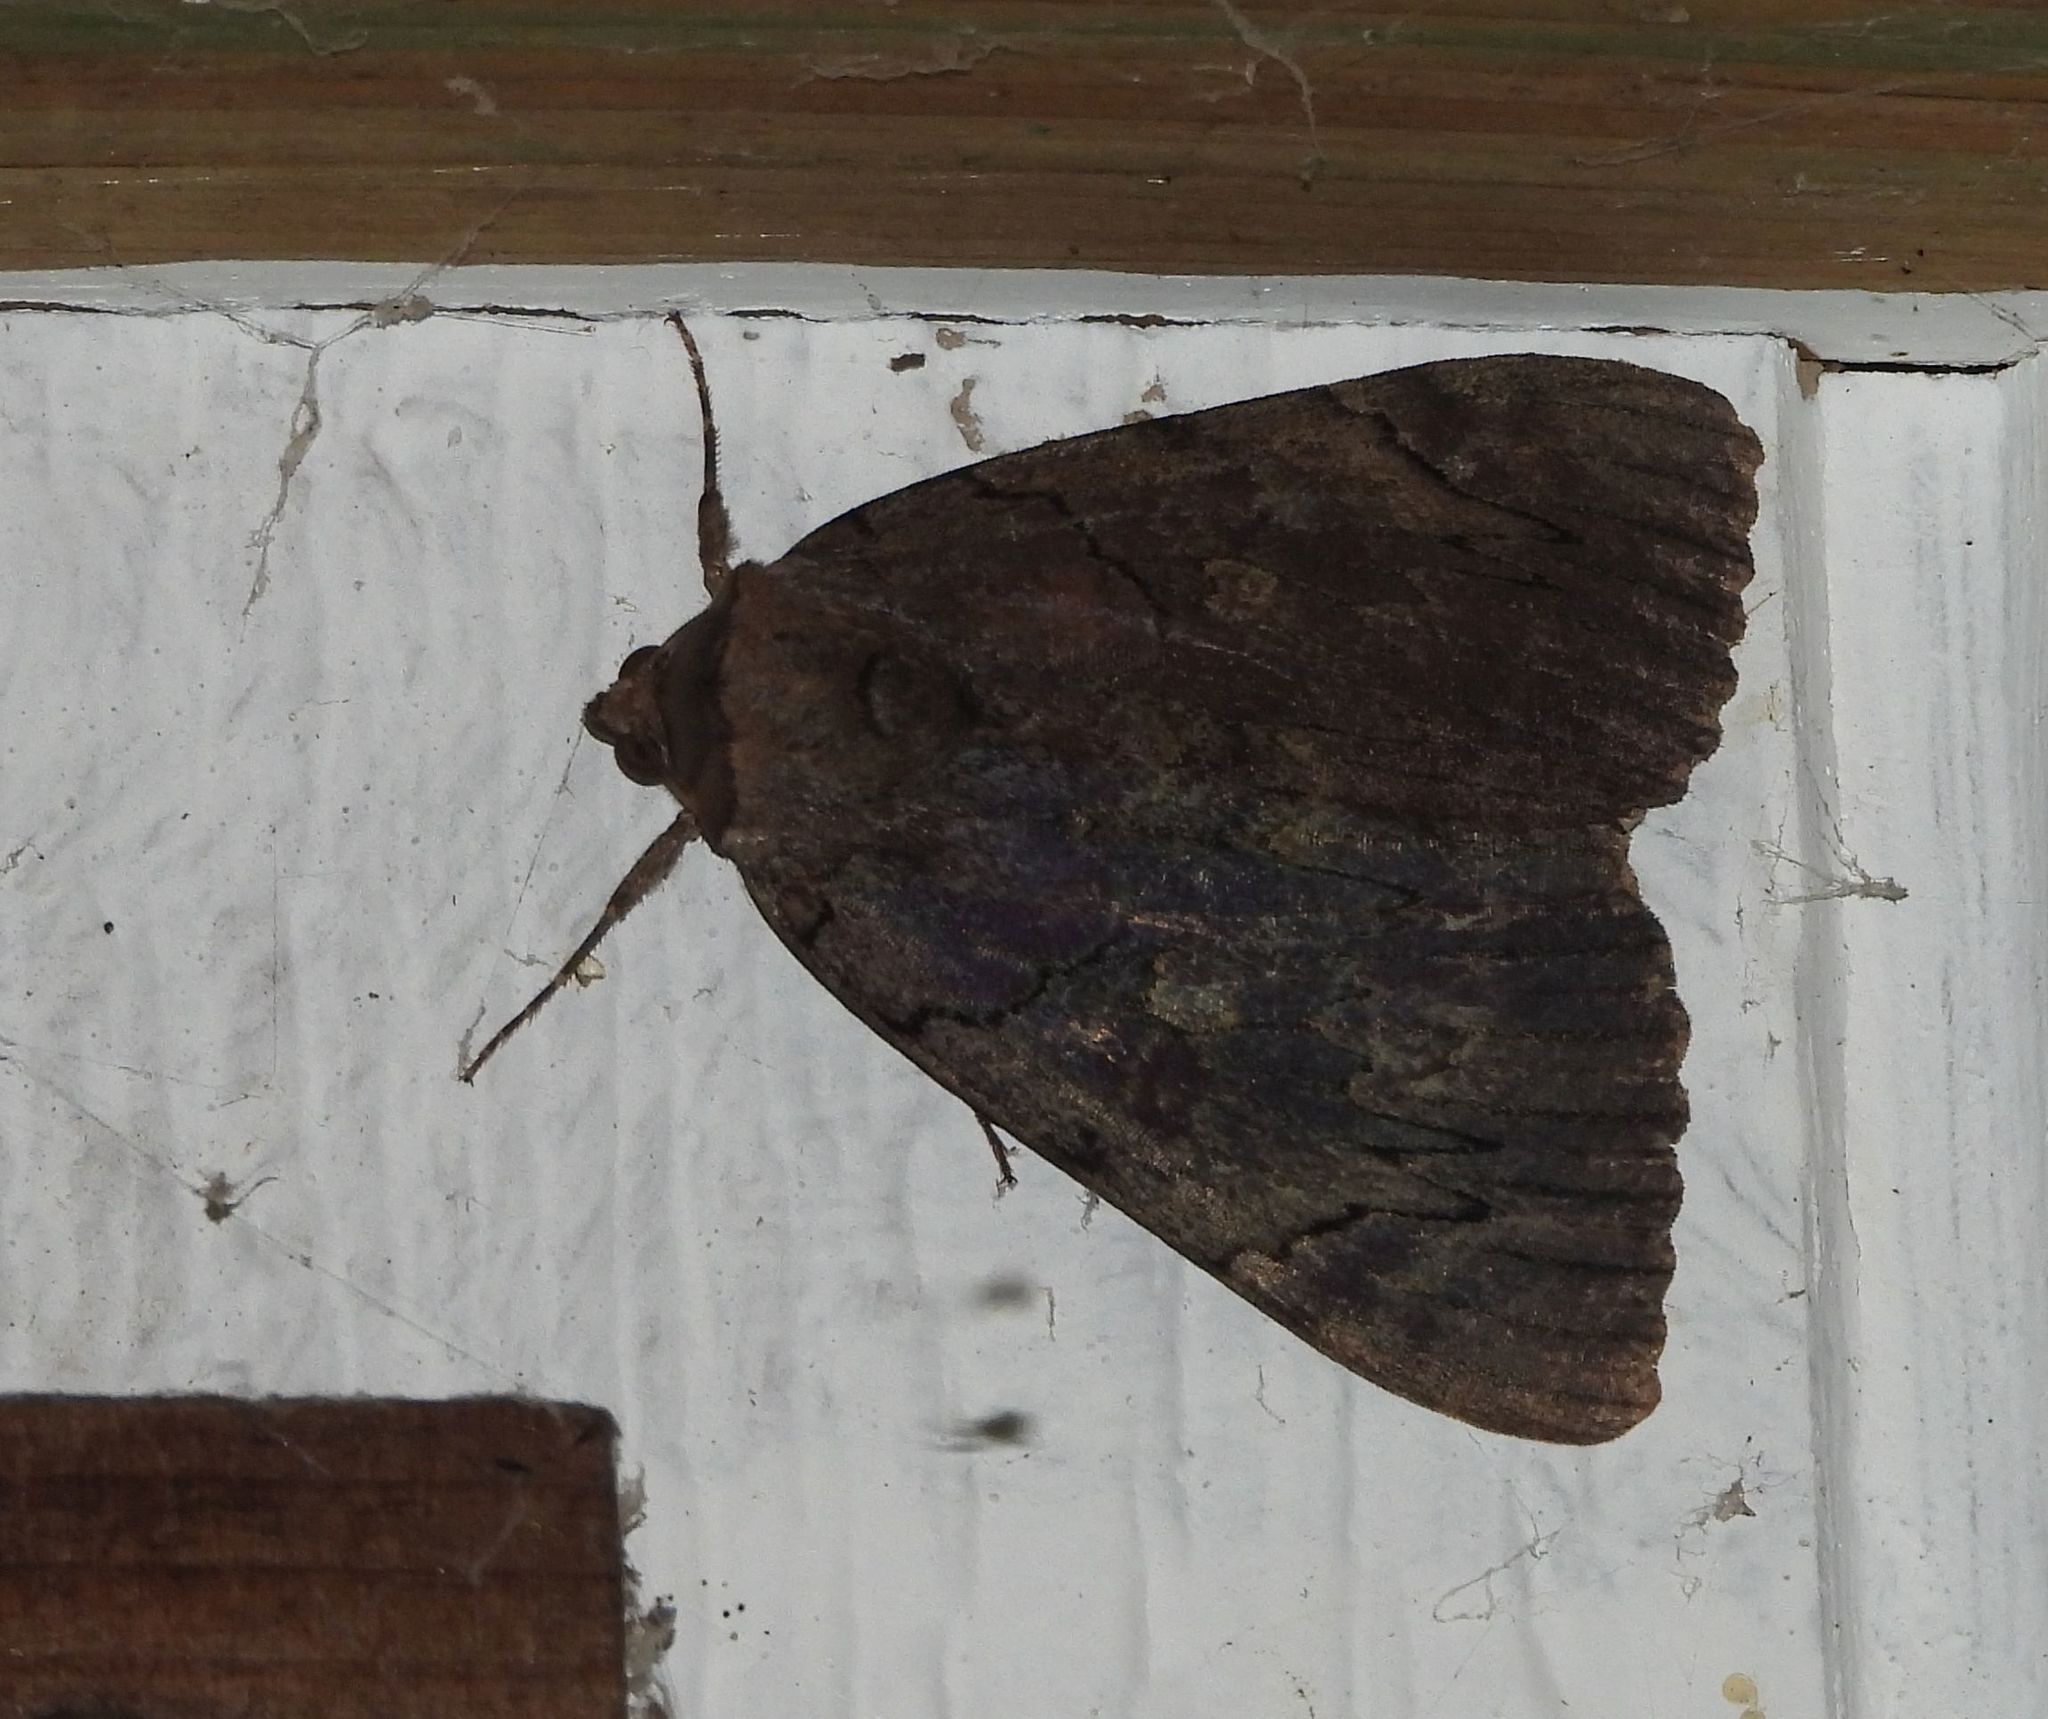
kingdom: Animalia
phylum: Arthropoda
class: Insecta
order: Lepidoptera
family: Erebidae
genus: Catocala
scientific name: Catocala cara
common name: Darling underwing
